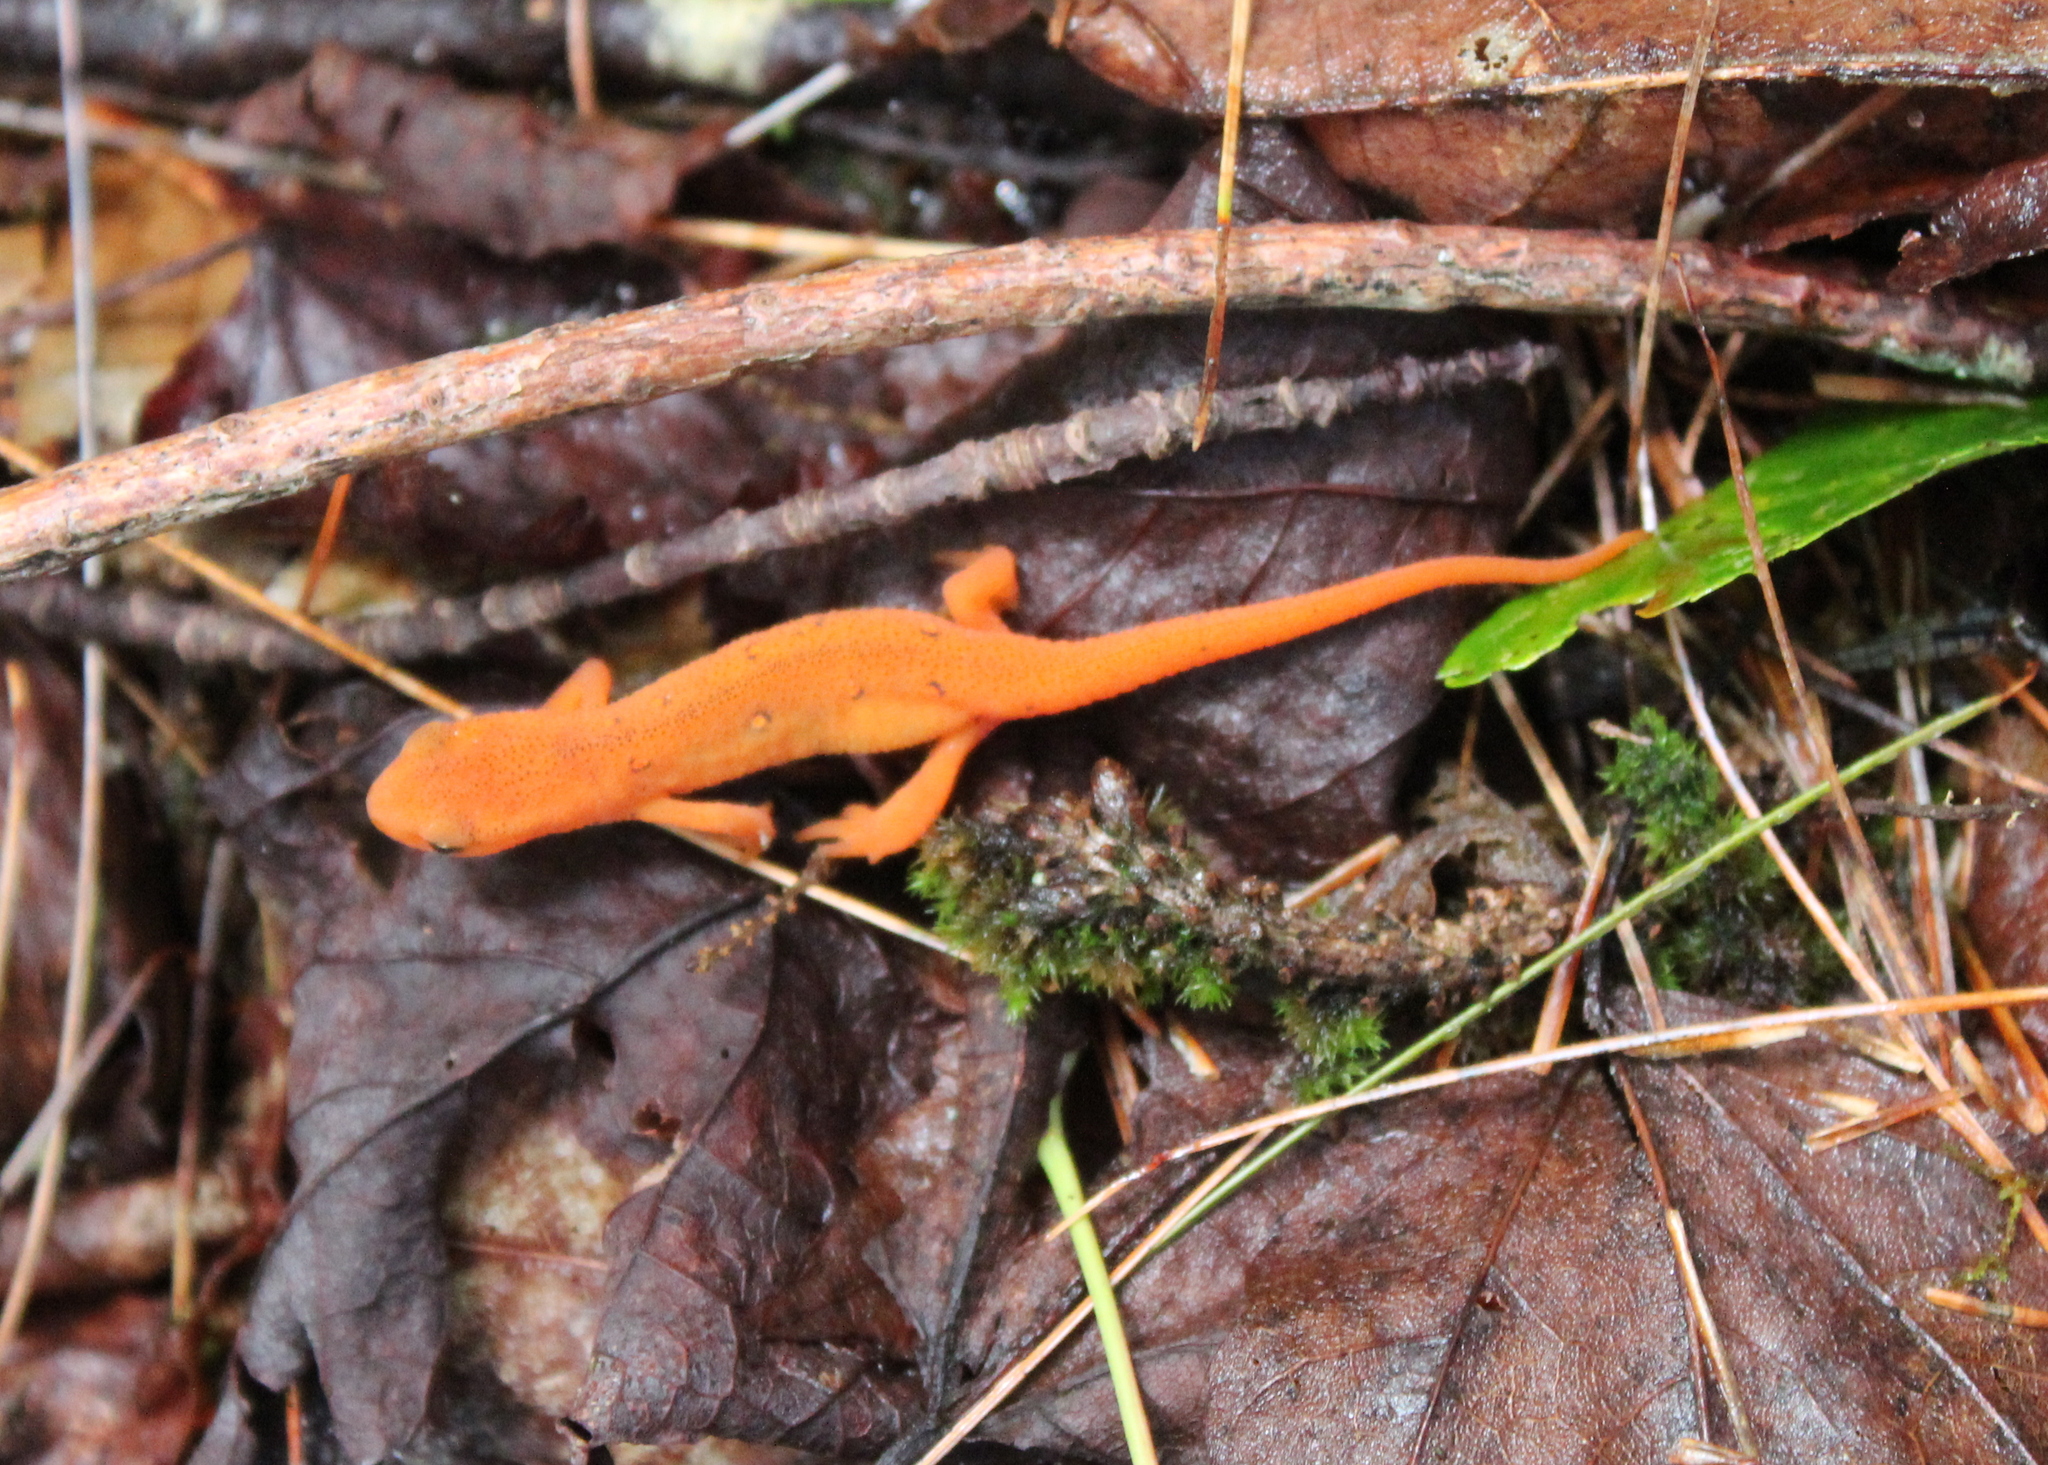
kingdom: Animalia
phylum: Chordata
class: Amphibia
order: Caudata
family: Salamandridae
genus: Notophthalmus
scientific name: Notophthalmus viridescens
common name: Eastern newt
